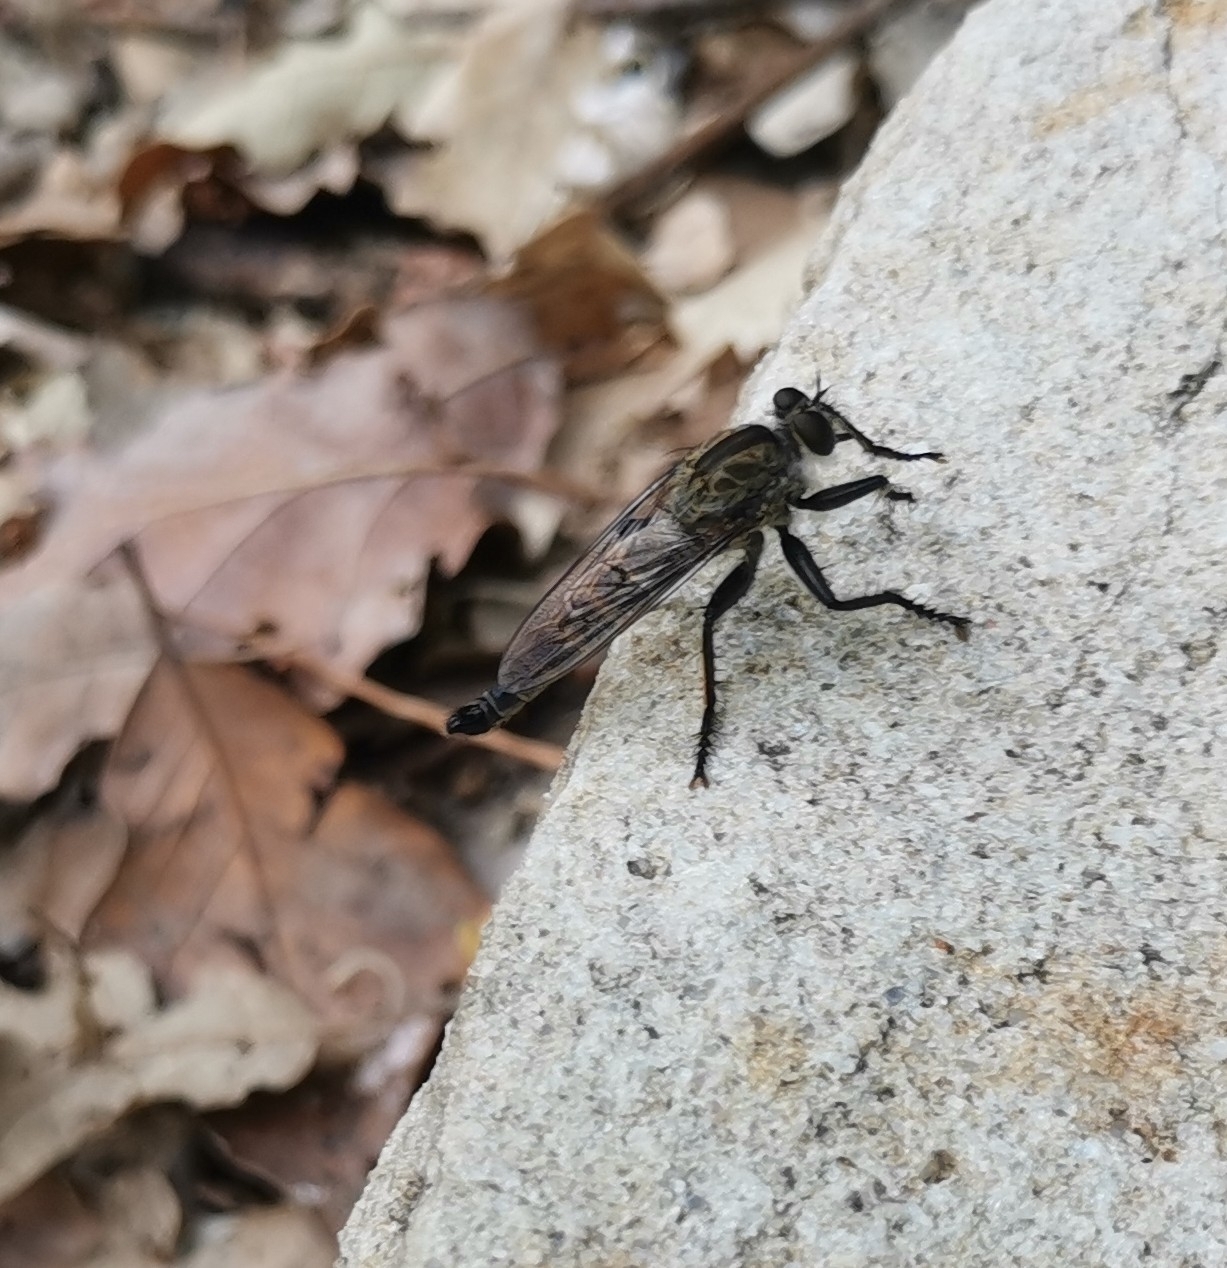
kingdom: Animalia
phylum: Arthropoda
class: Insecta
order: Diptera
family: Asilidae
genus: Machimus
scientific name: Machimus atripes
